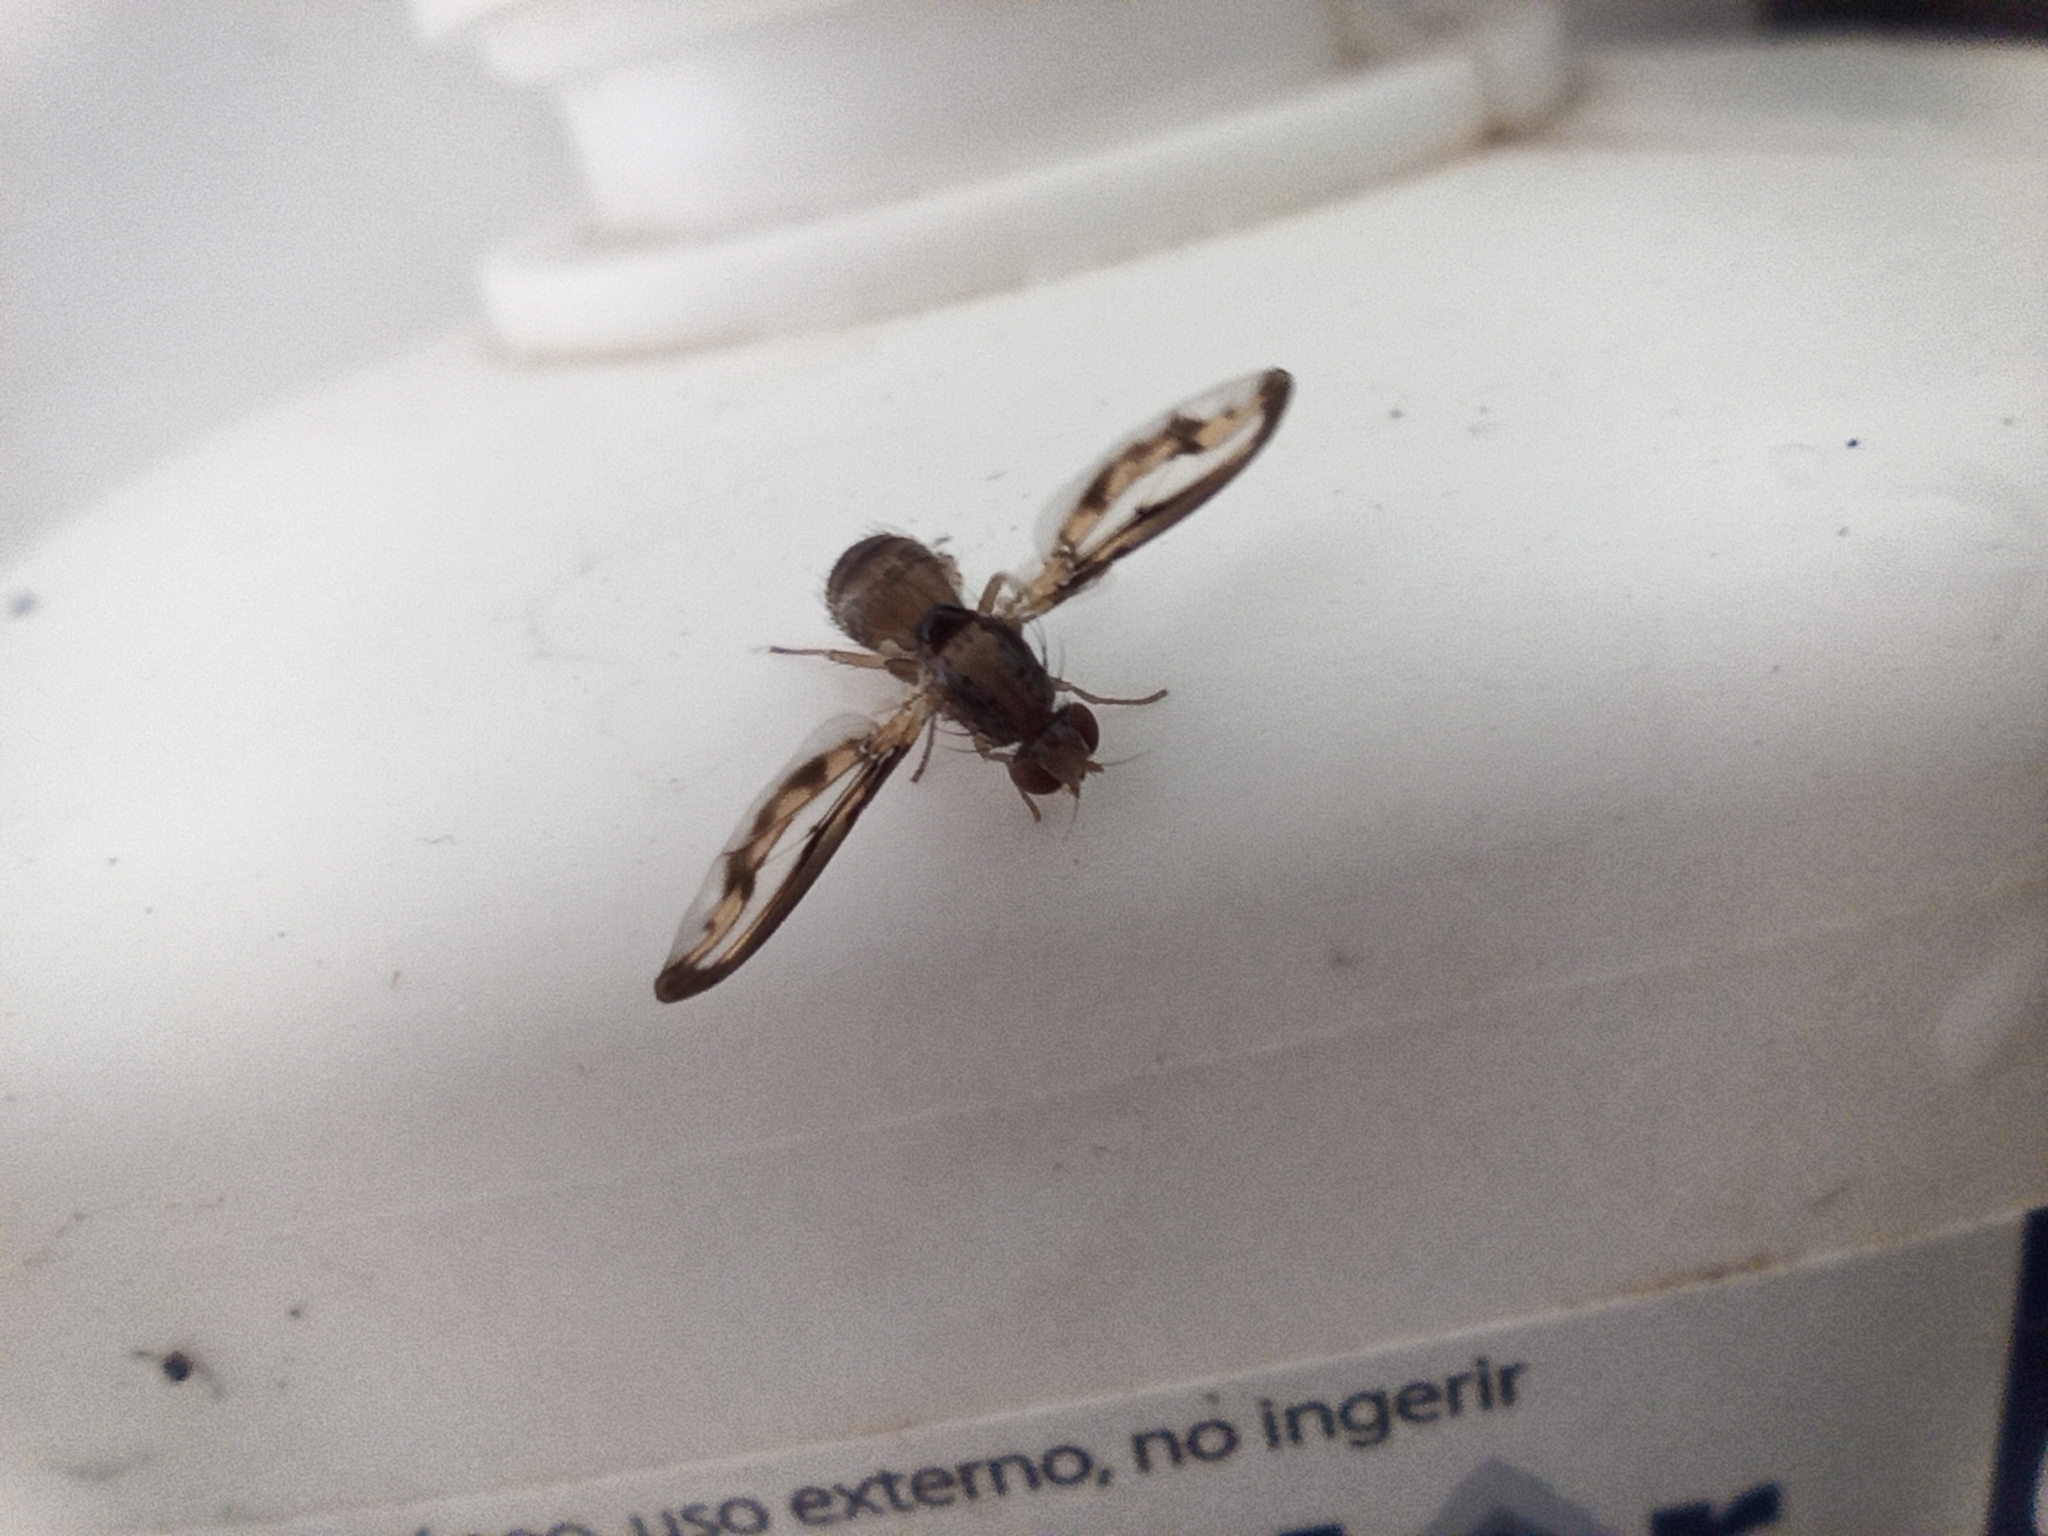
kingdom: Animalia
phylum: Arthropoda
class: Insecta
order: Diptera
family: Pallopteridae
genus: Toxonevra
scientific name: Toxonevra muliebris
